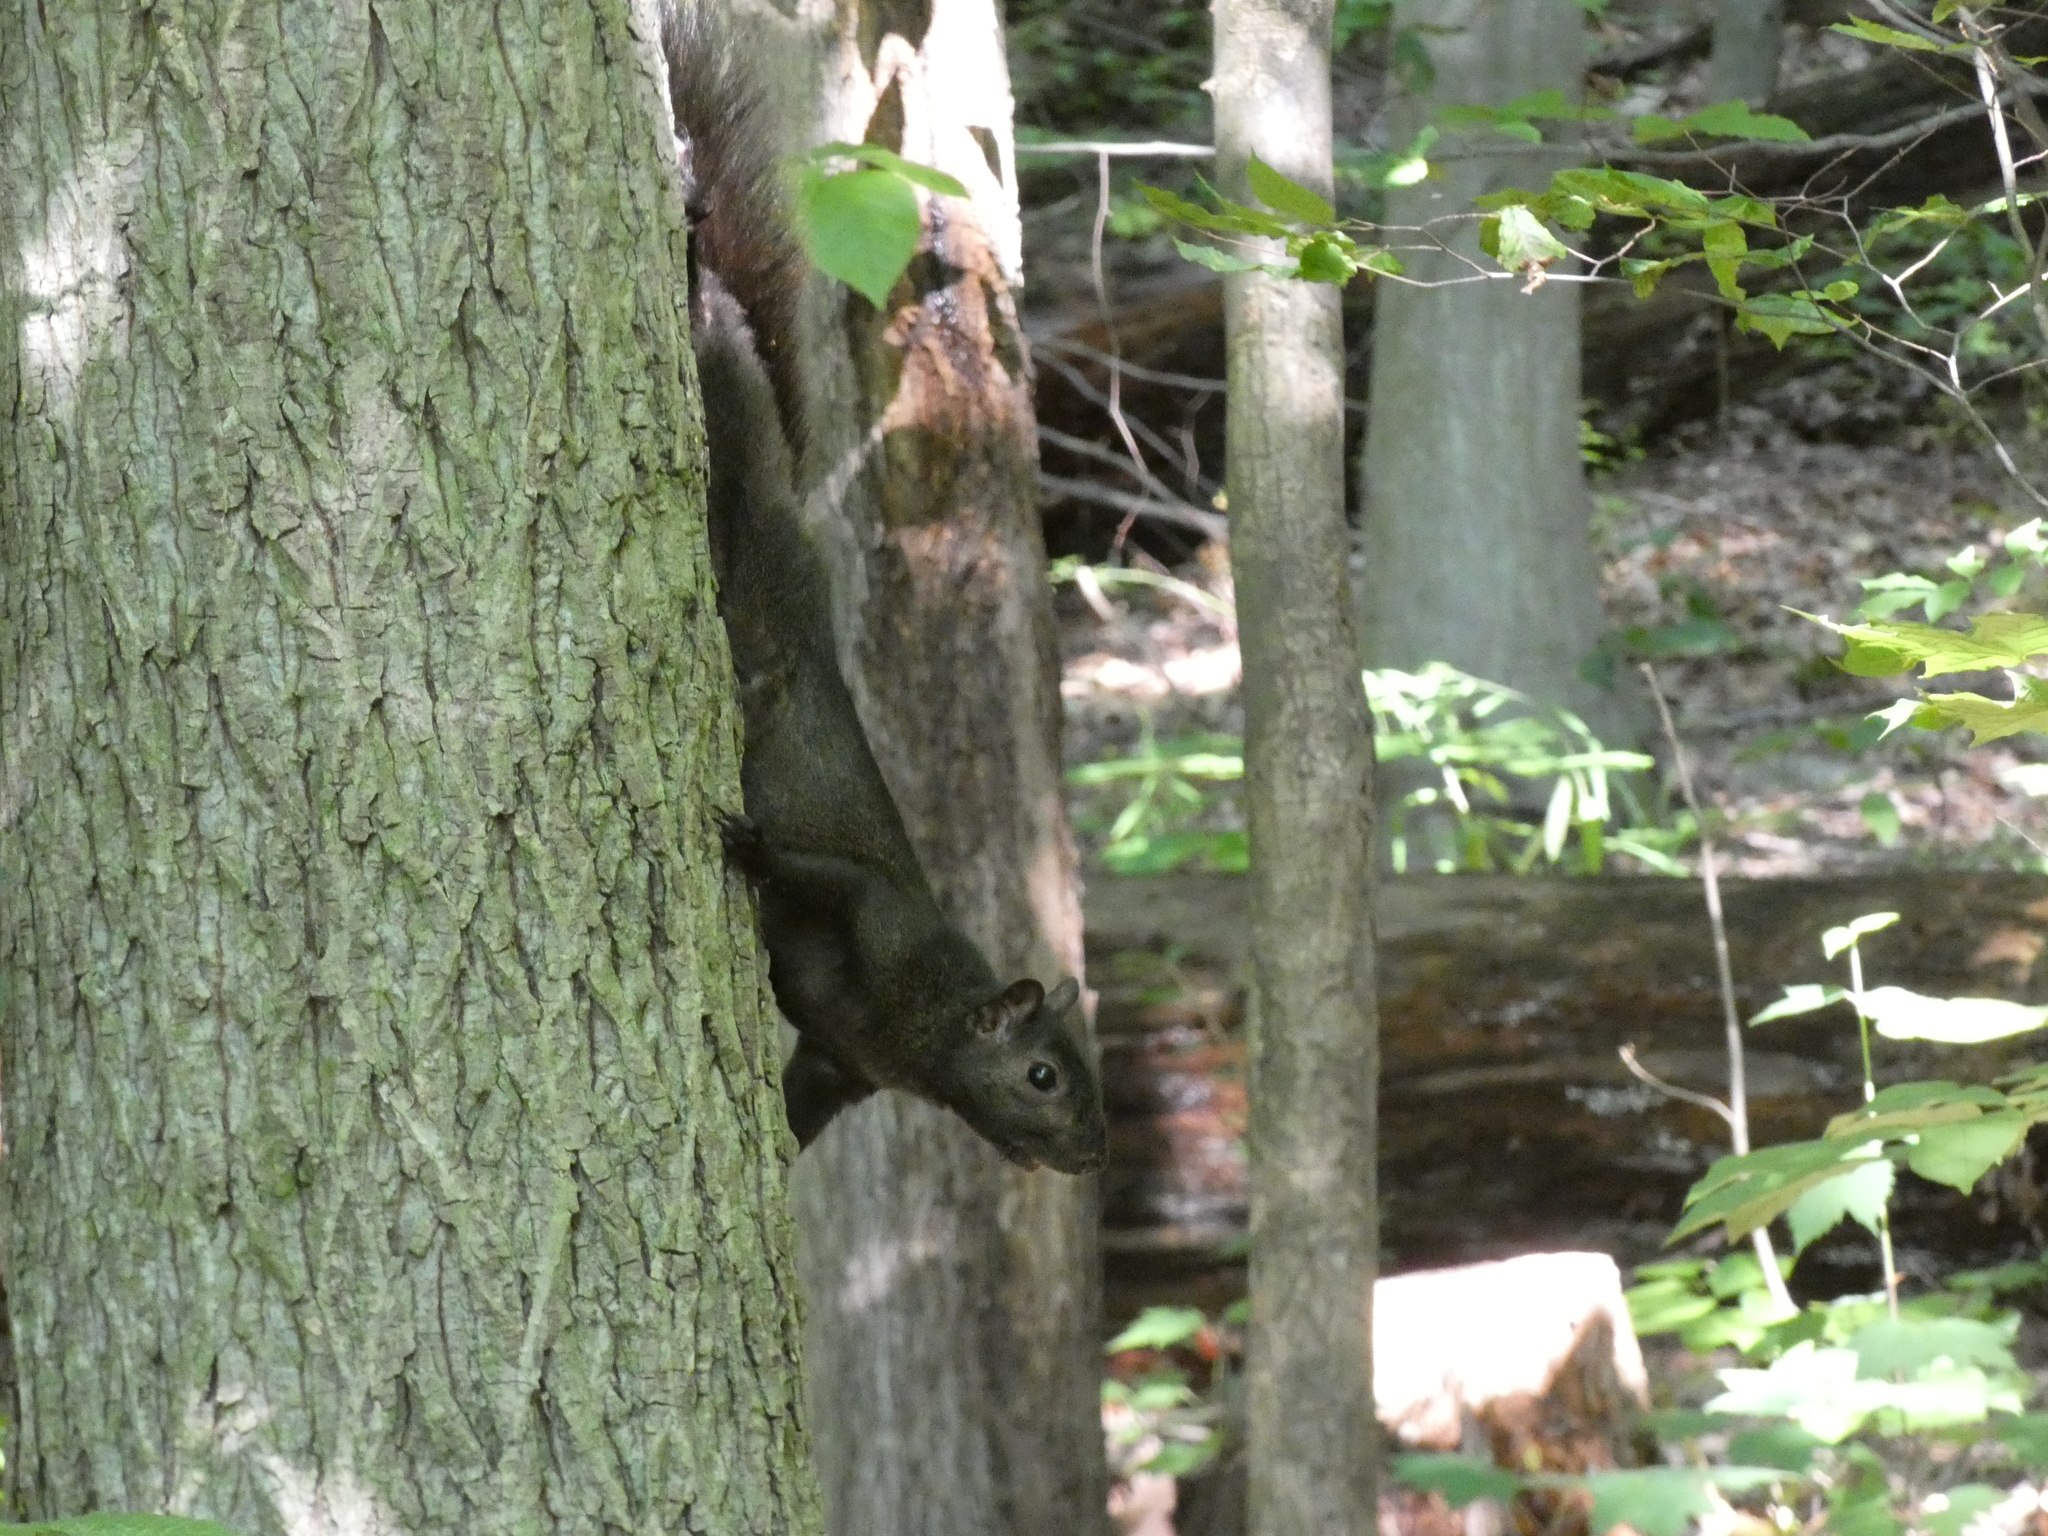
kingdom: Animalia
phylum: Chordata
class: Mammalia
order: Rodentia
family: Sciuridae
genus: Sciurus
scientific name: Sciurus carolinensis
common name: Eastern gray squirrel
